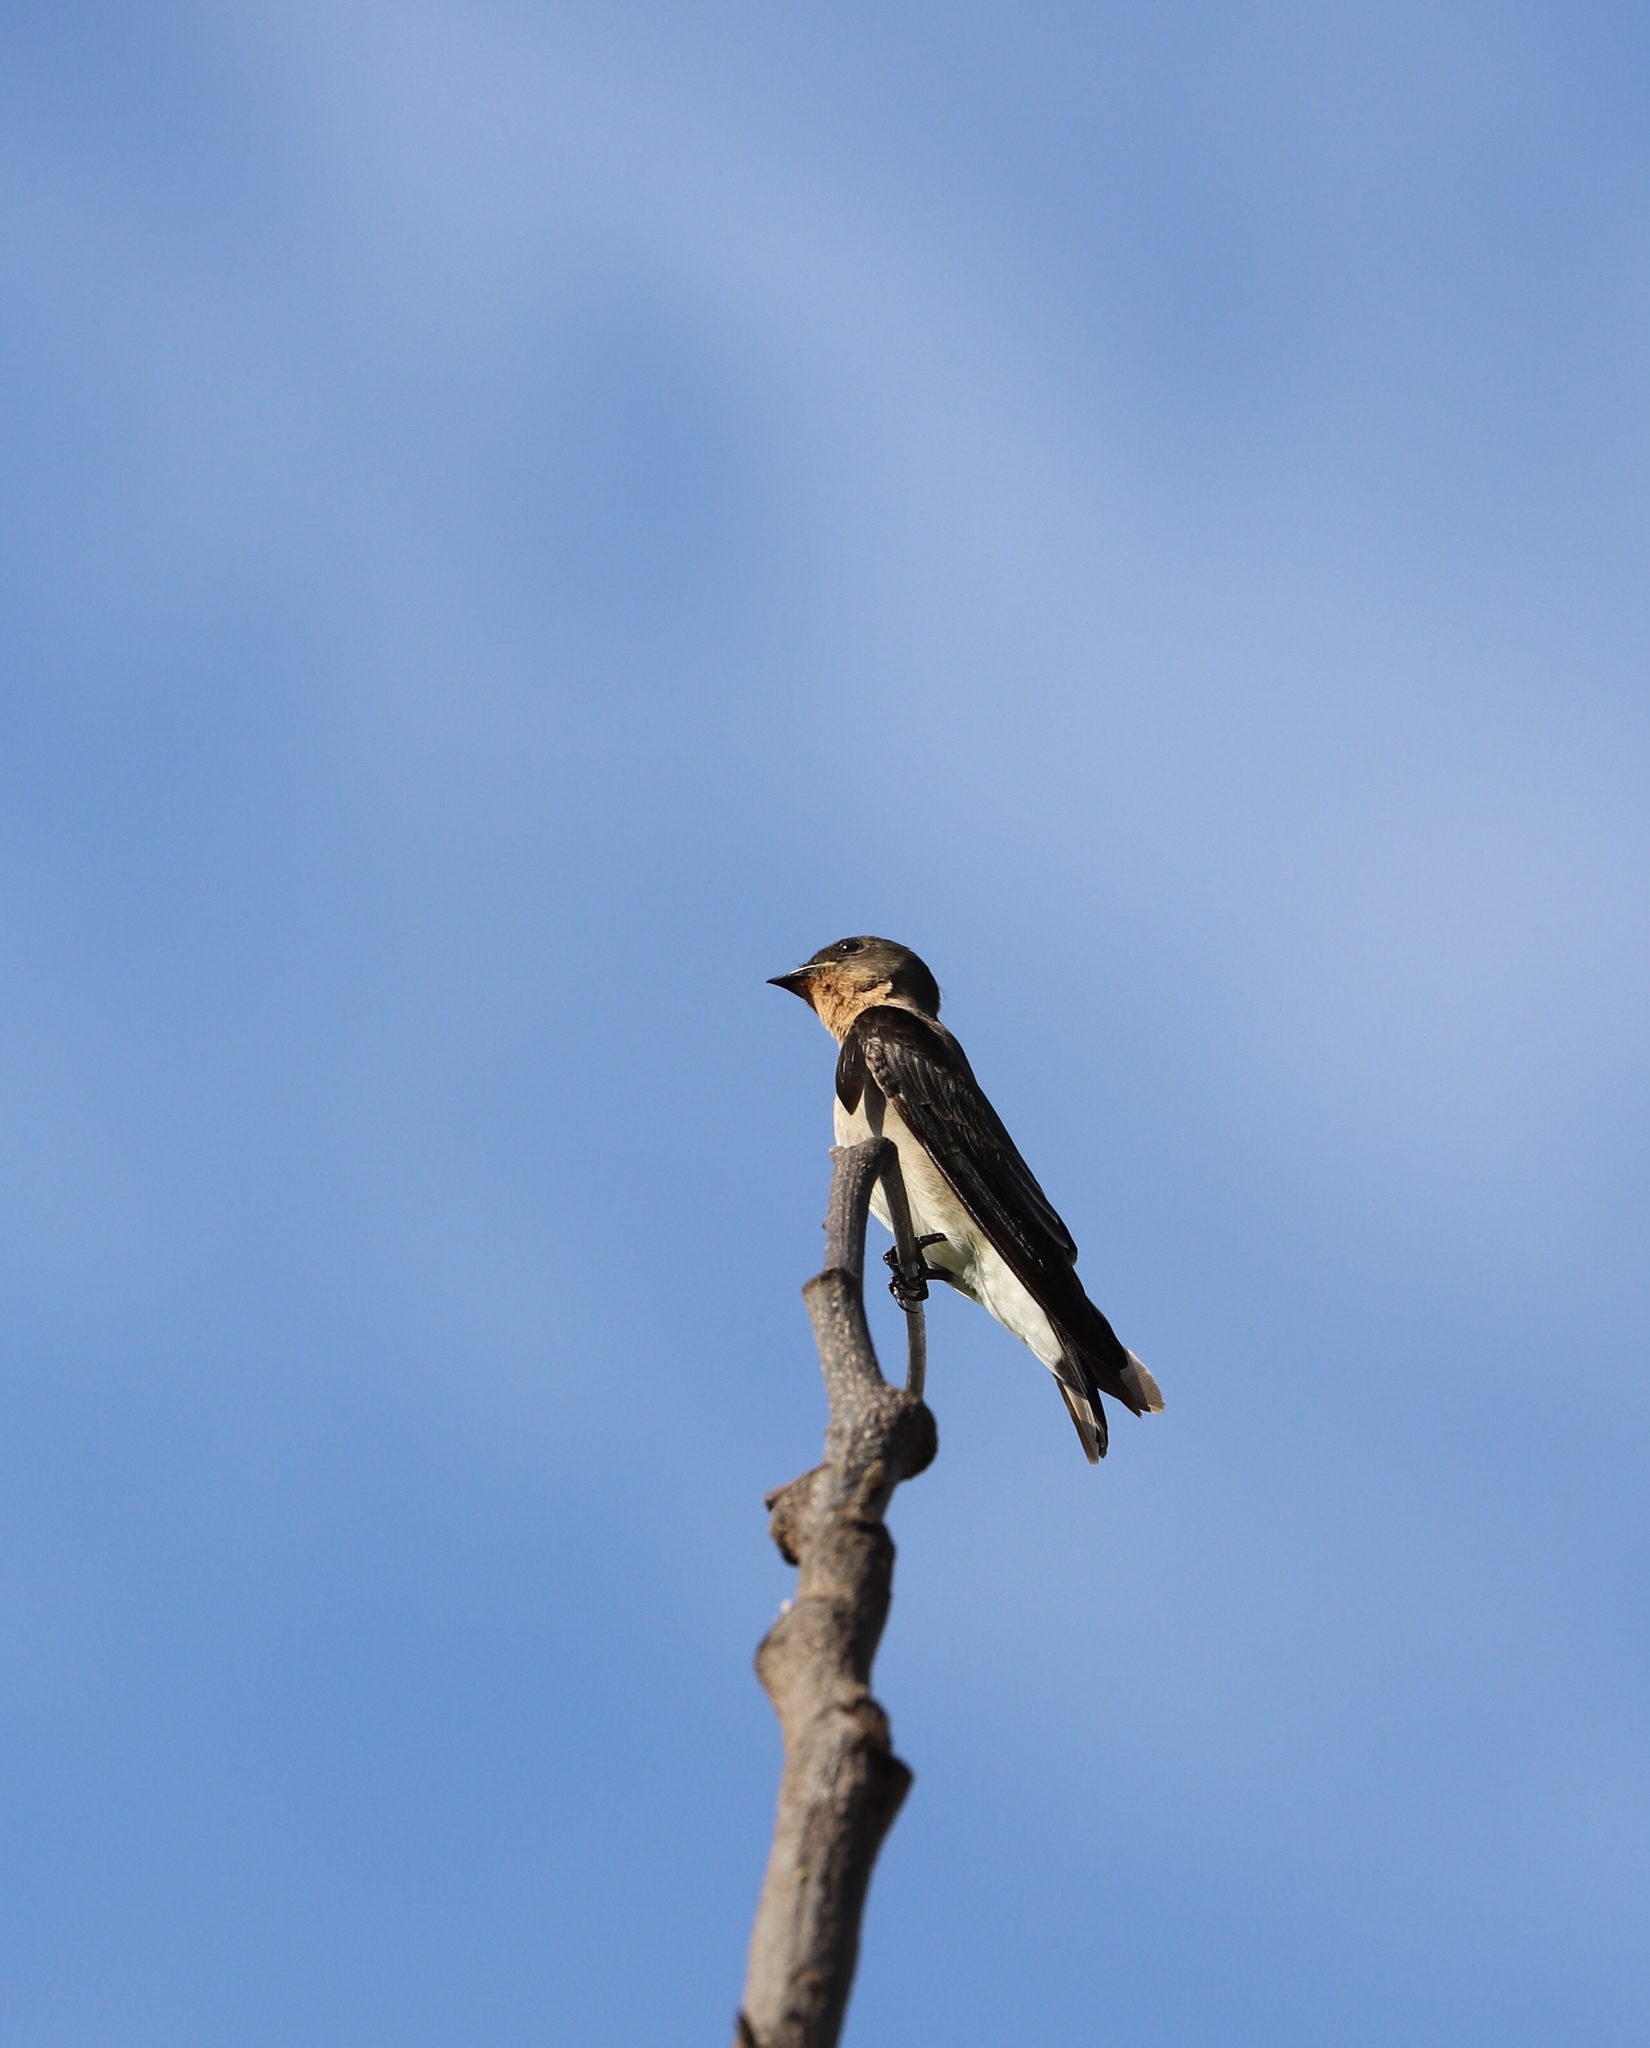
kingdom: Animalia
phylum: Chordata
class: Aves
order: Passeriformes
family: Hirundinidae
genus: Stelgidopteryx
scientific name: Stelgidopteryx ruficollis
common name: Southern rough-winged swallow
